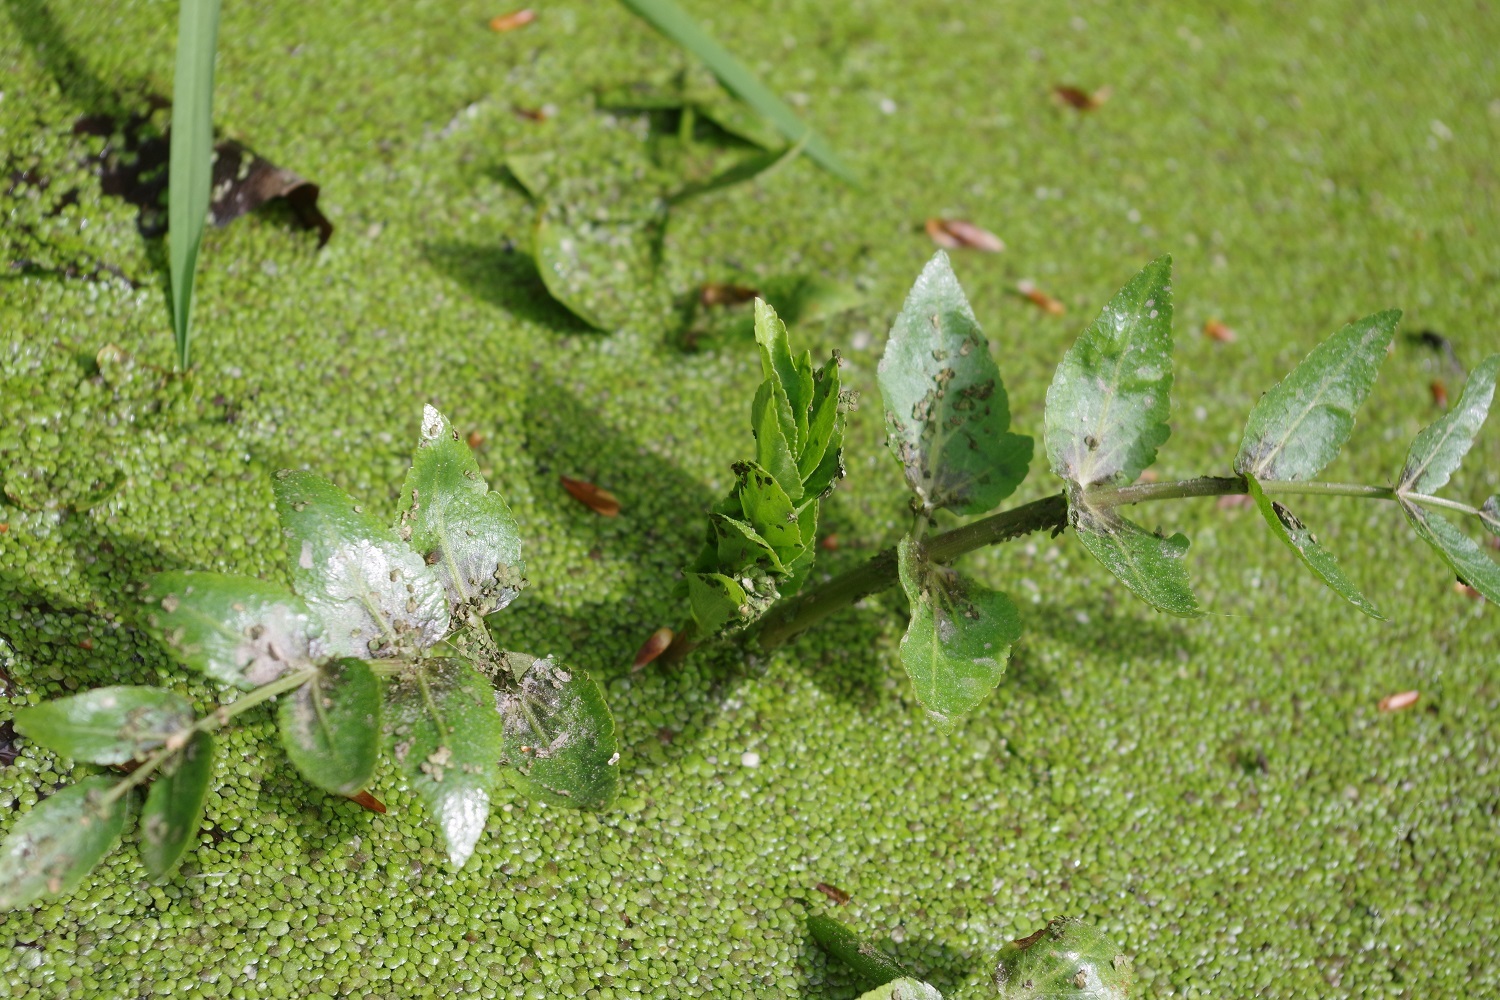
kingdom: Plantae
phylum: Tracheophyta
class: Magnoliopsida
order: Apiales
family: Apiaceae
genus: Helosciadium
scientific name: Helosciadium nodiflorum
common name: Fool's-watercress
